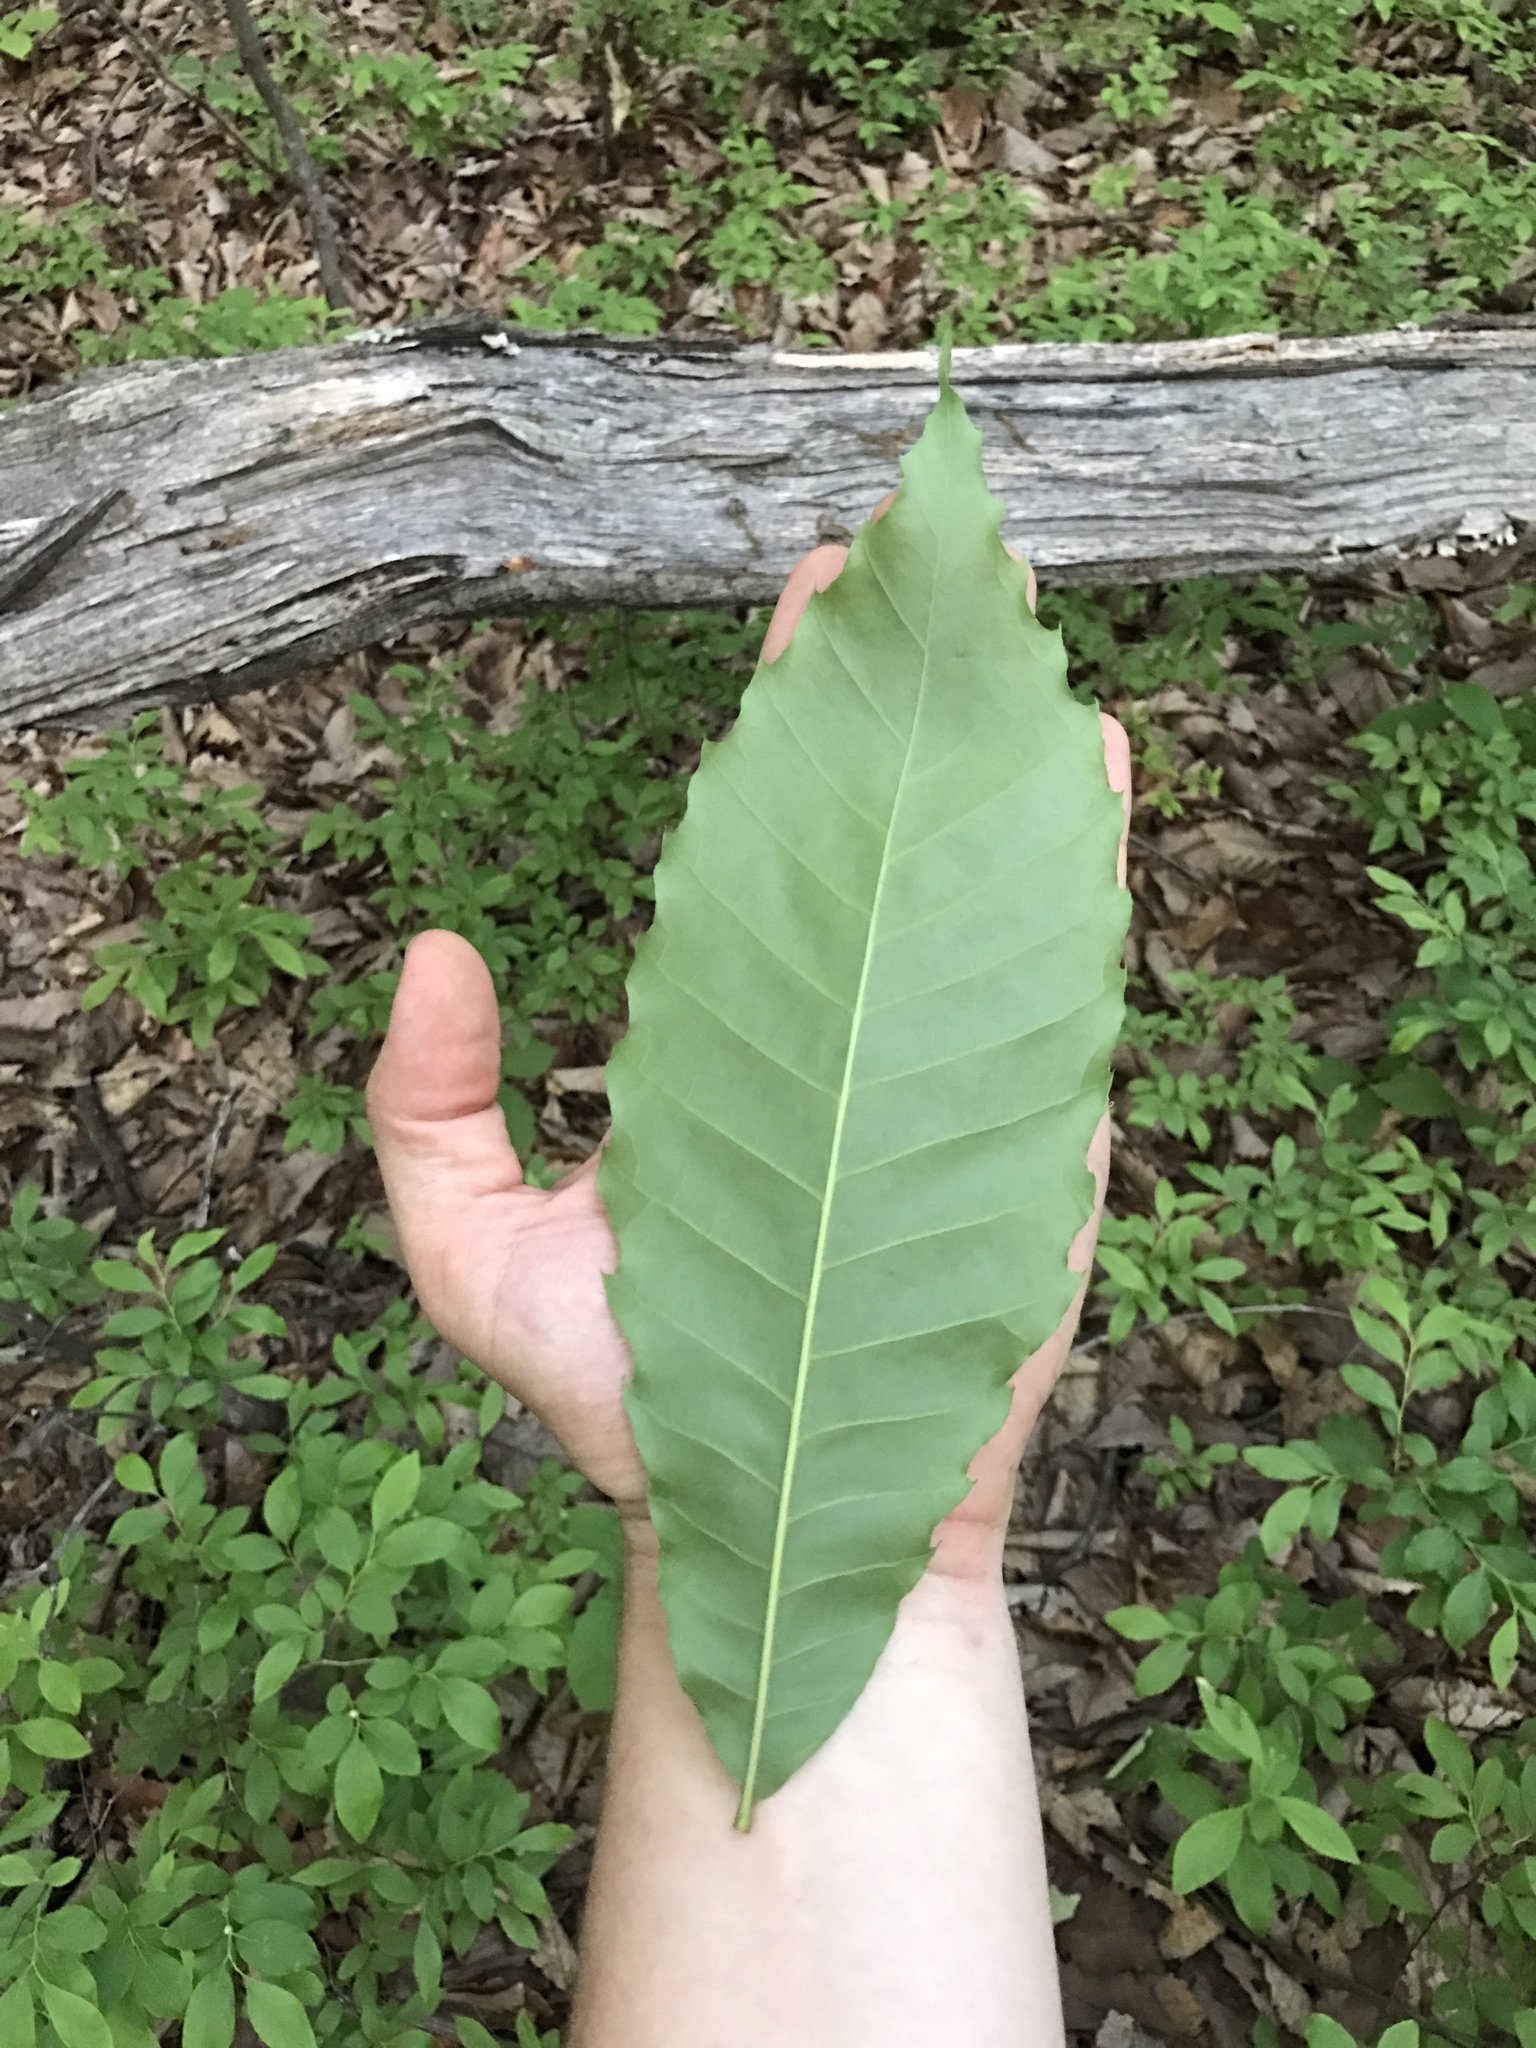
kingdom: Plantae
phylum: Tracheophyta
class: Magnoliopsida
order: Fagales
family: Fagaceae
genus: Castanea
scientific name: Castanea dentata
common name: American chestnut
